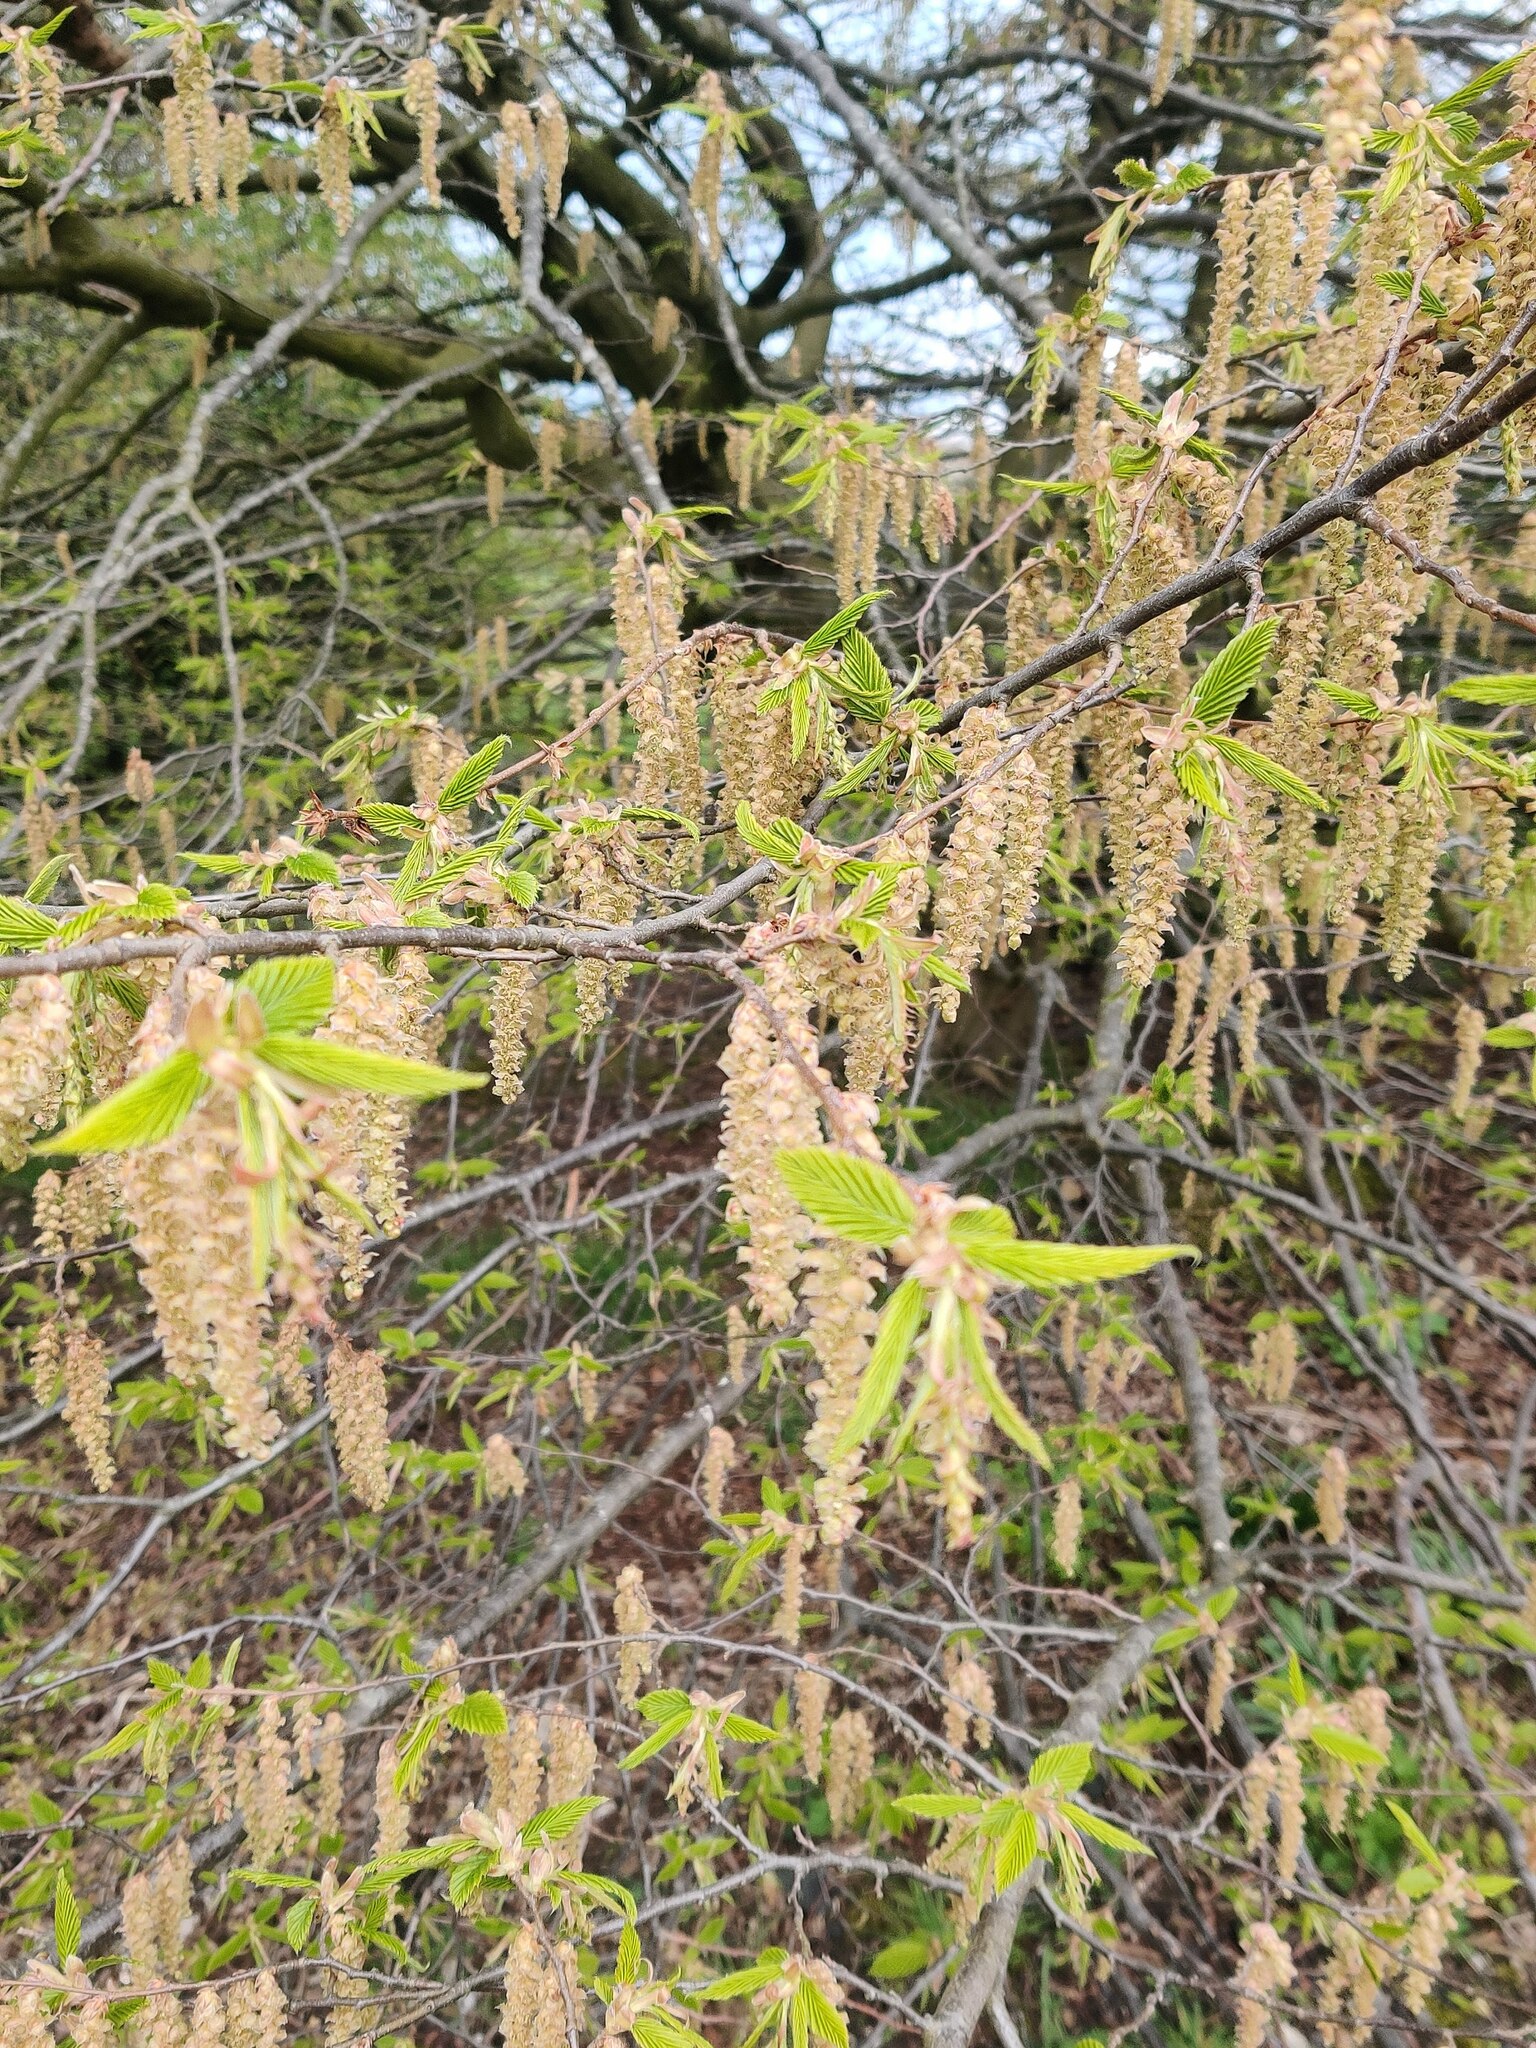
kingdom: Plantae
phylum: Tracheophyta
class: Magnoliopsida
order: Fagales
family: Betulaceae
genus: Carpinus
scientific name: Carpinus betulus
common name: Hornbeam
